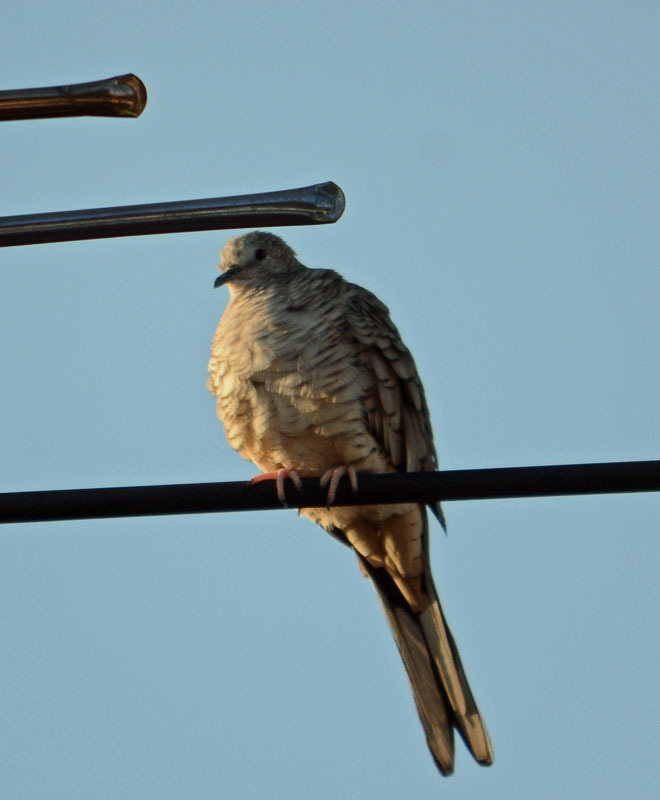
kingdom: Animalia
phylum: Chordata
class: Aves
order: Columbiformes
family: Columbidae
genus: Columbina
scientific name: Columbina inca
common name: Inca dove
